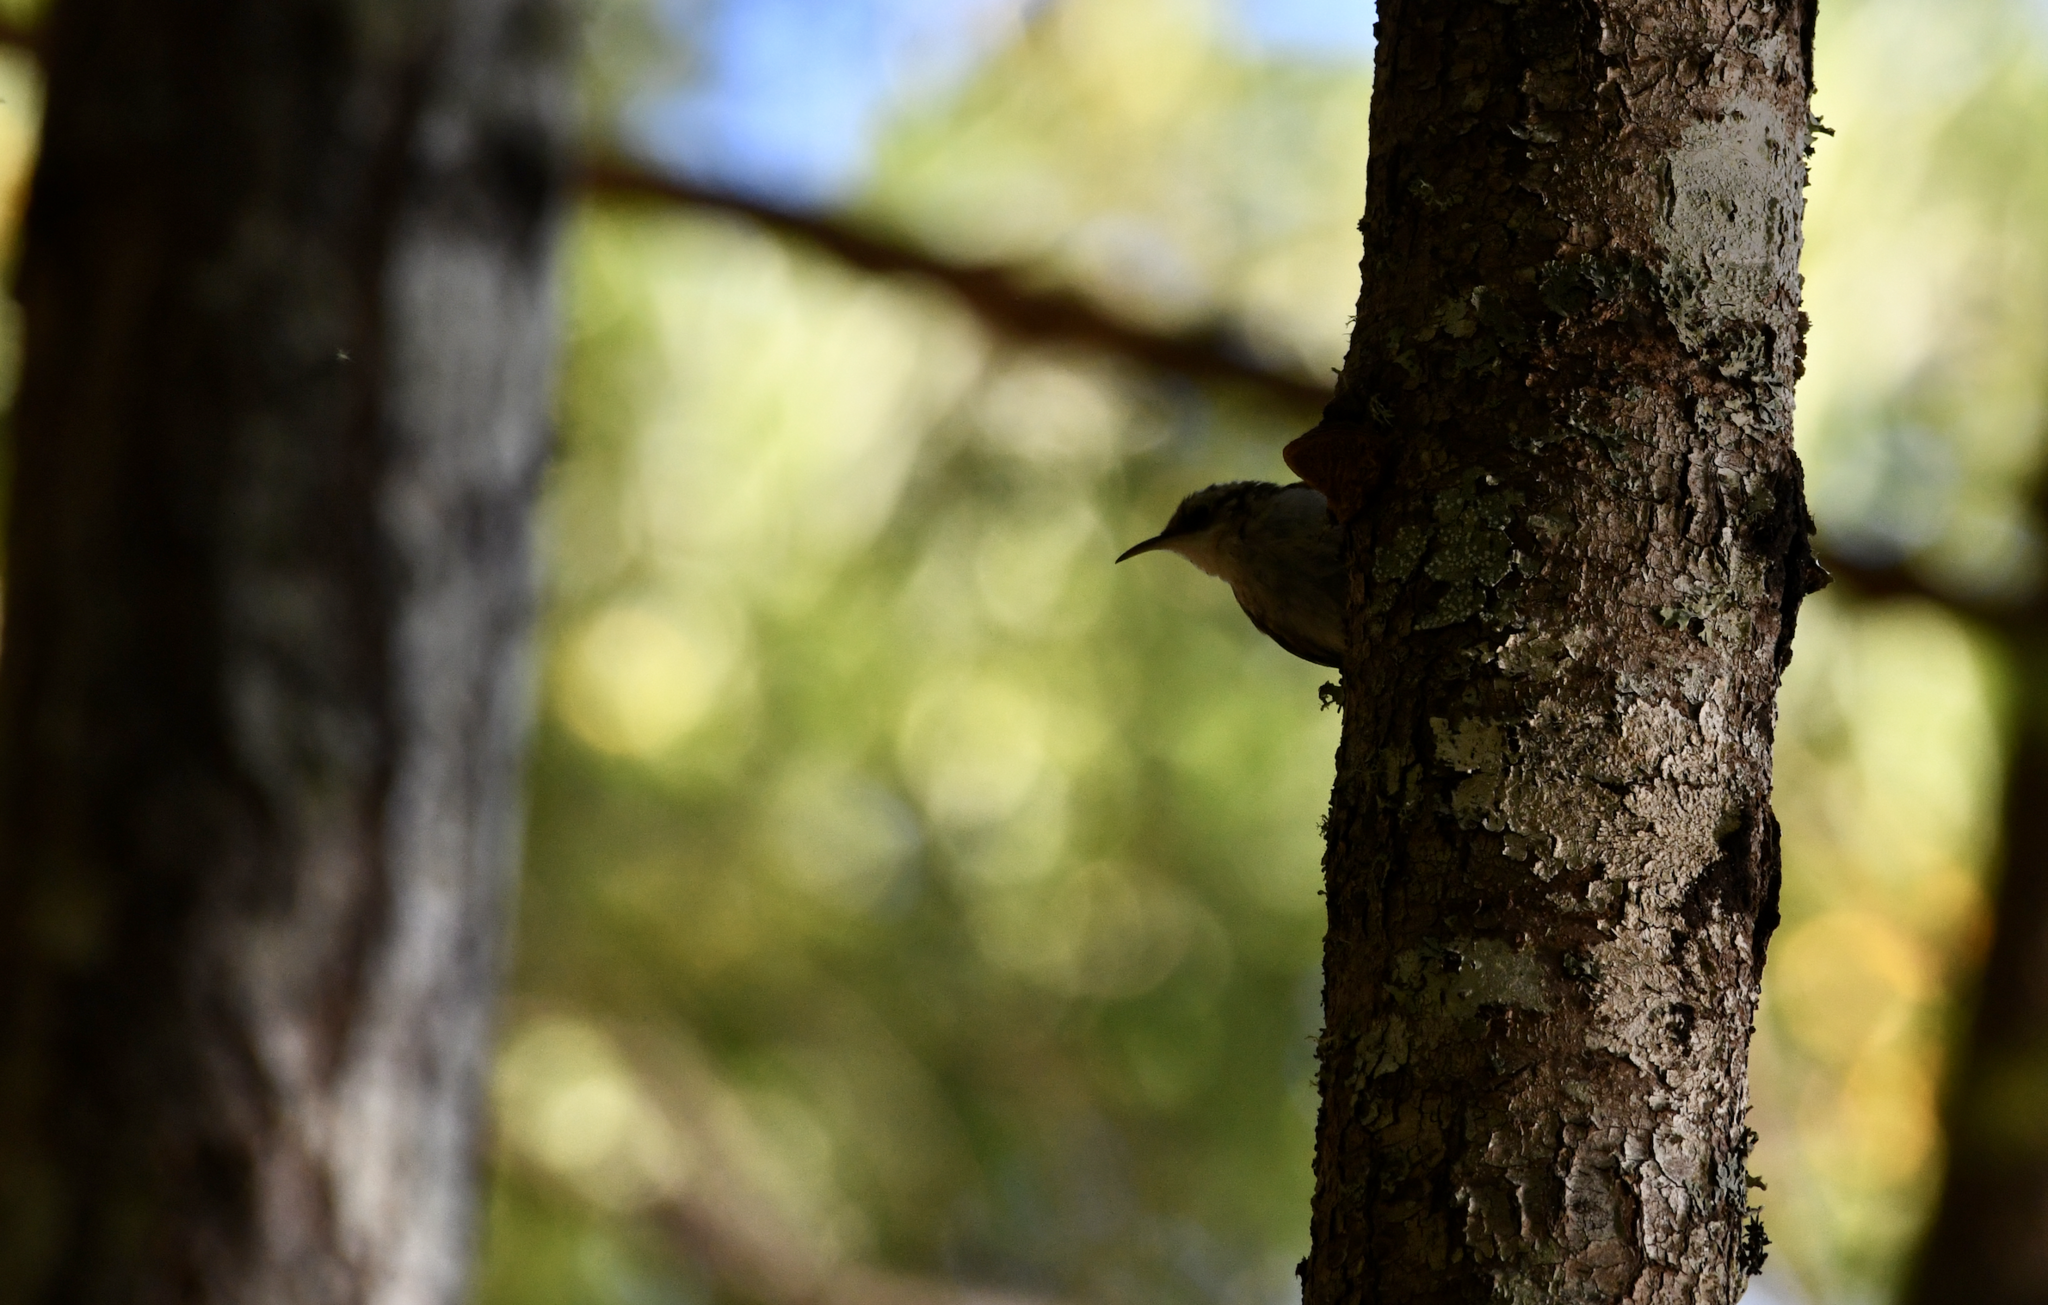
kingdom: Animalia
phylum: Chordata
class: Aves
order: Passeriformes
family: Certhiidae
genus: Certhia
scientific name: Certhia americana
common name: Brown creeper
